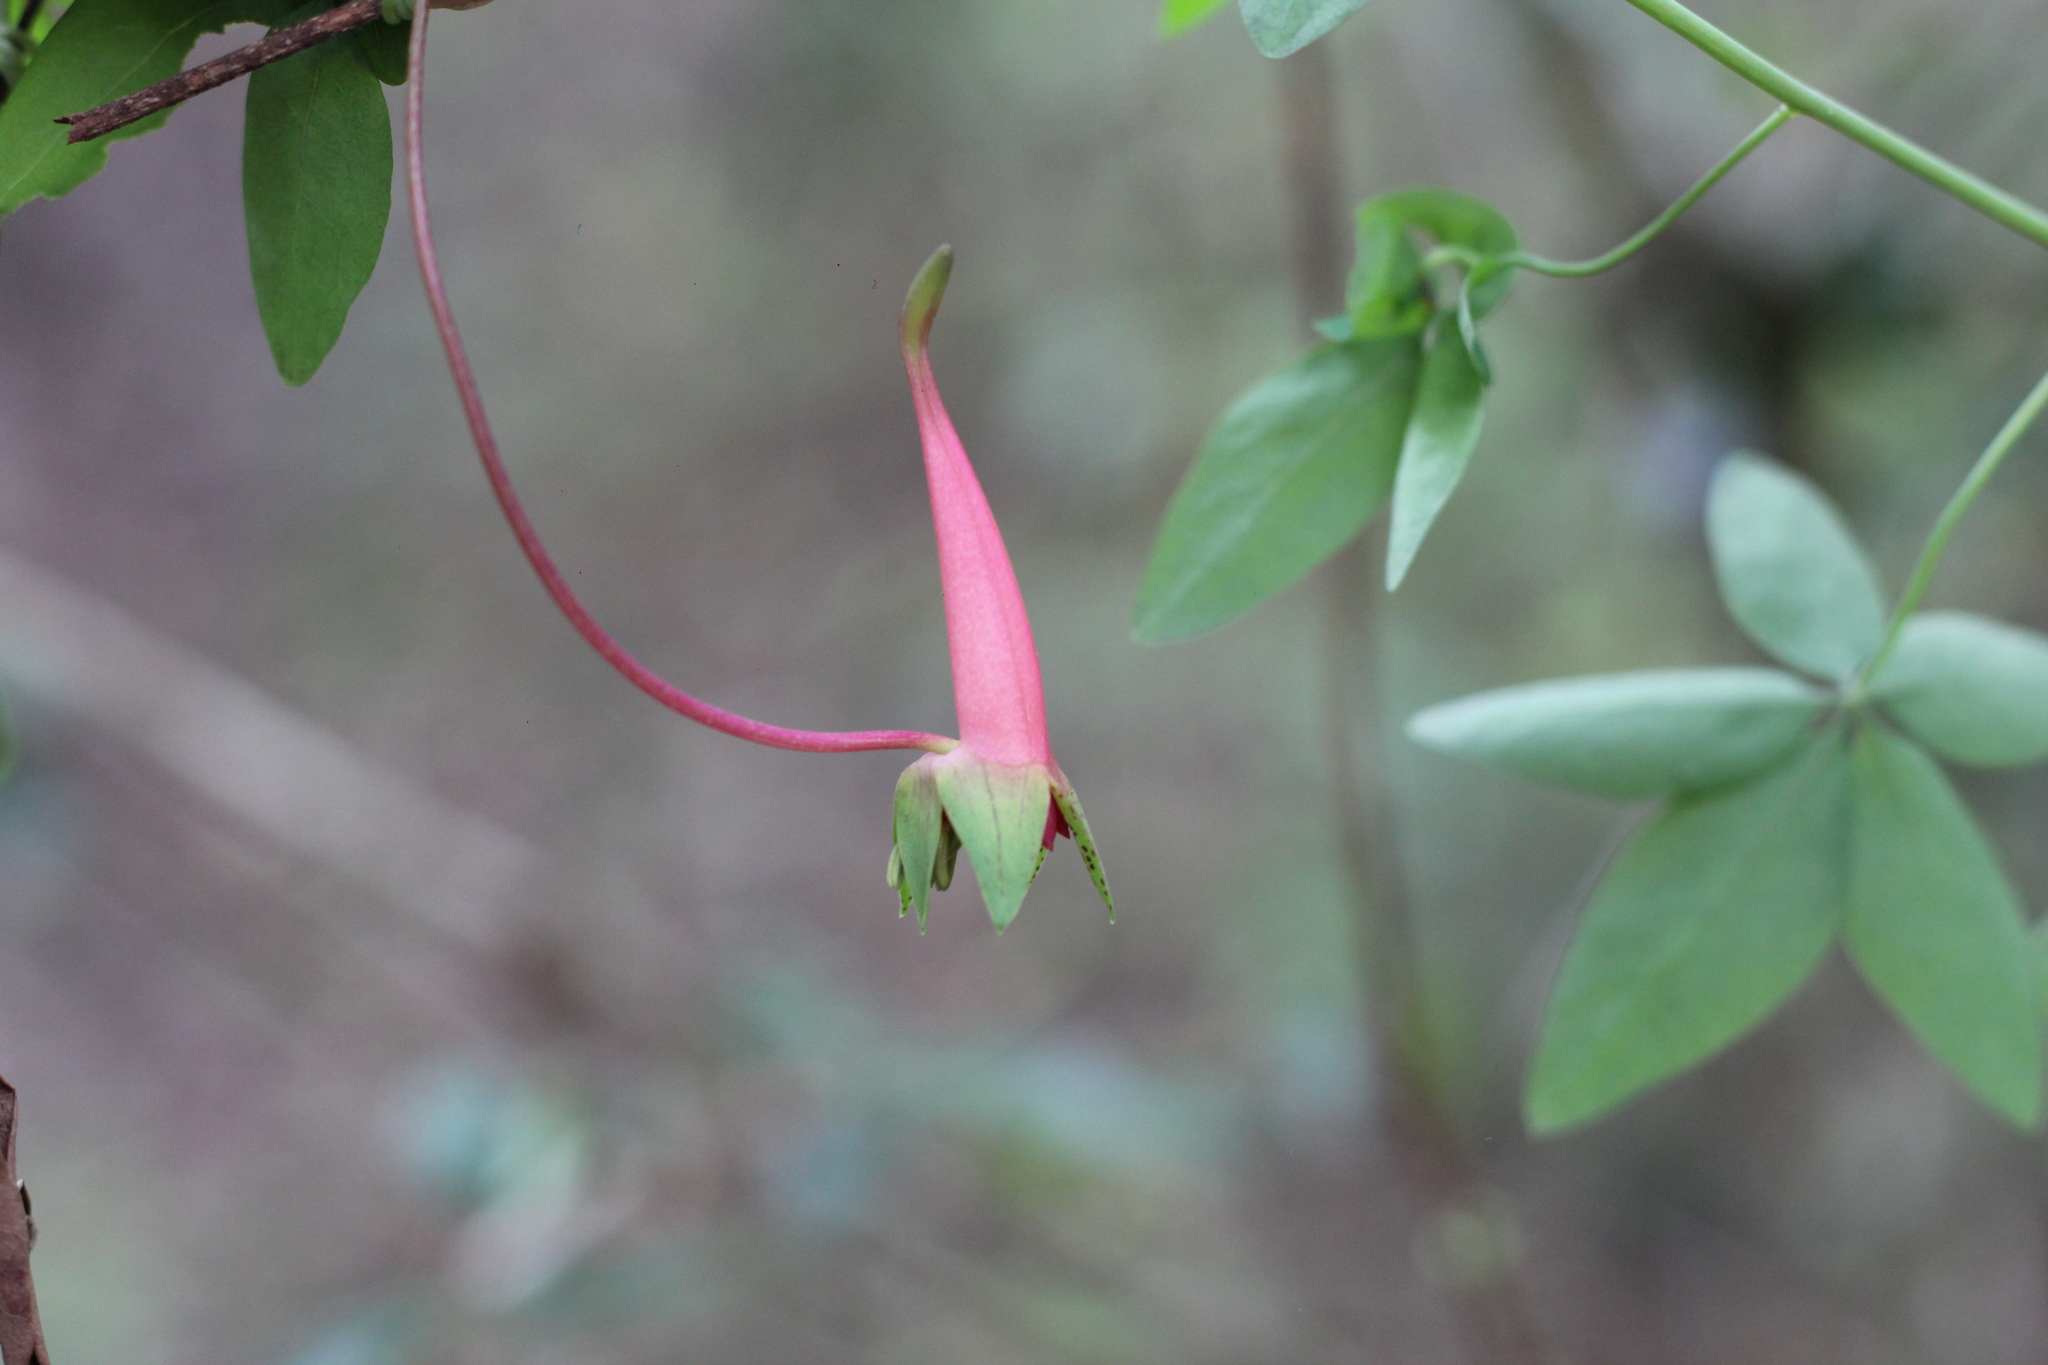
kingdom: Plantae
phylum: Tracheophyta
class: Magnoliopsida
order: Brassicales
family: Tropaeolaceae
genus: Tropaeolum
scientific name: Tropaeolum pentaphyllum
